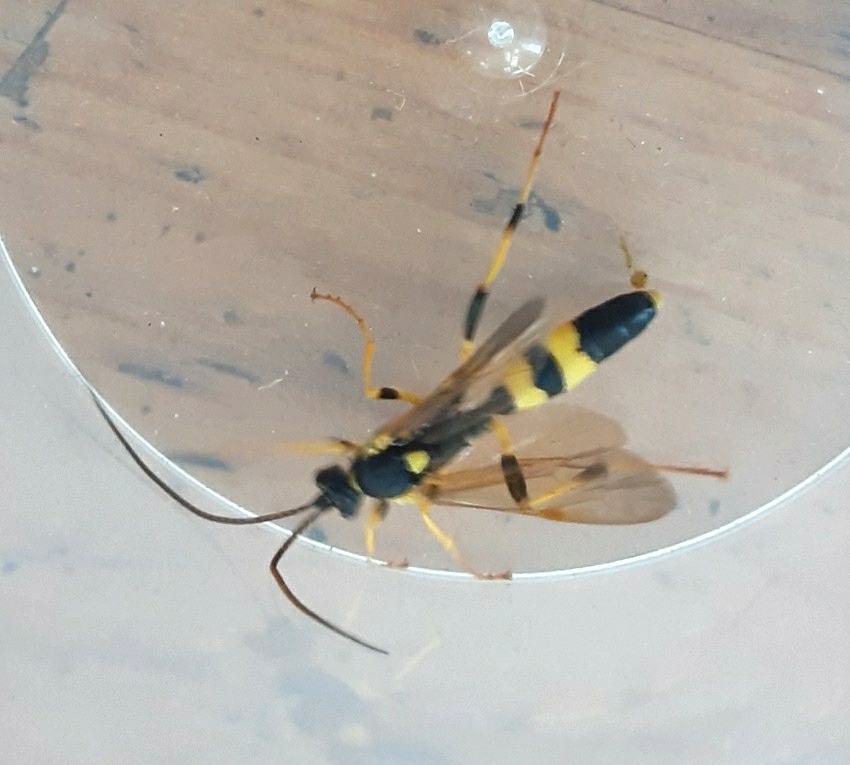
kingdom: Animalia
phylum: Arthropoda
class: Insecta
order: Hymenoptera
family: Ichneumonidae
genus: Amblyteles
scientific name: Amblyteles armatorius
